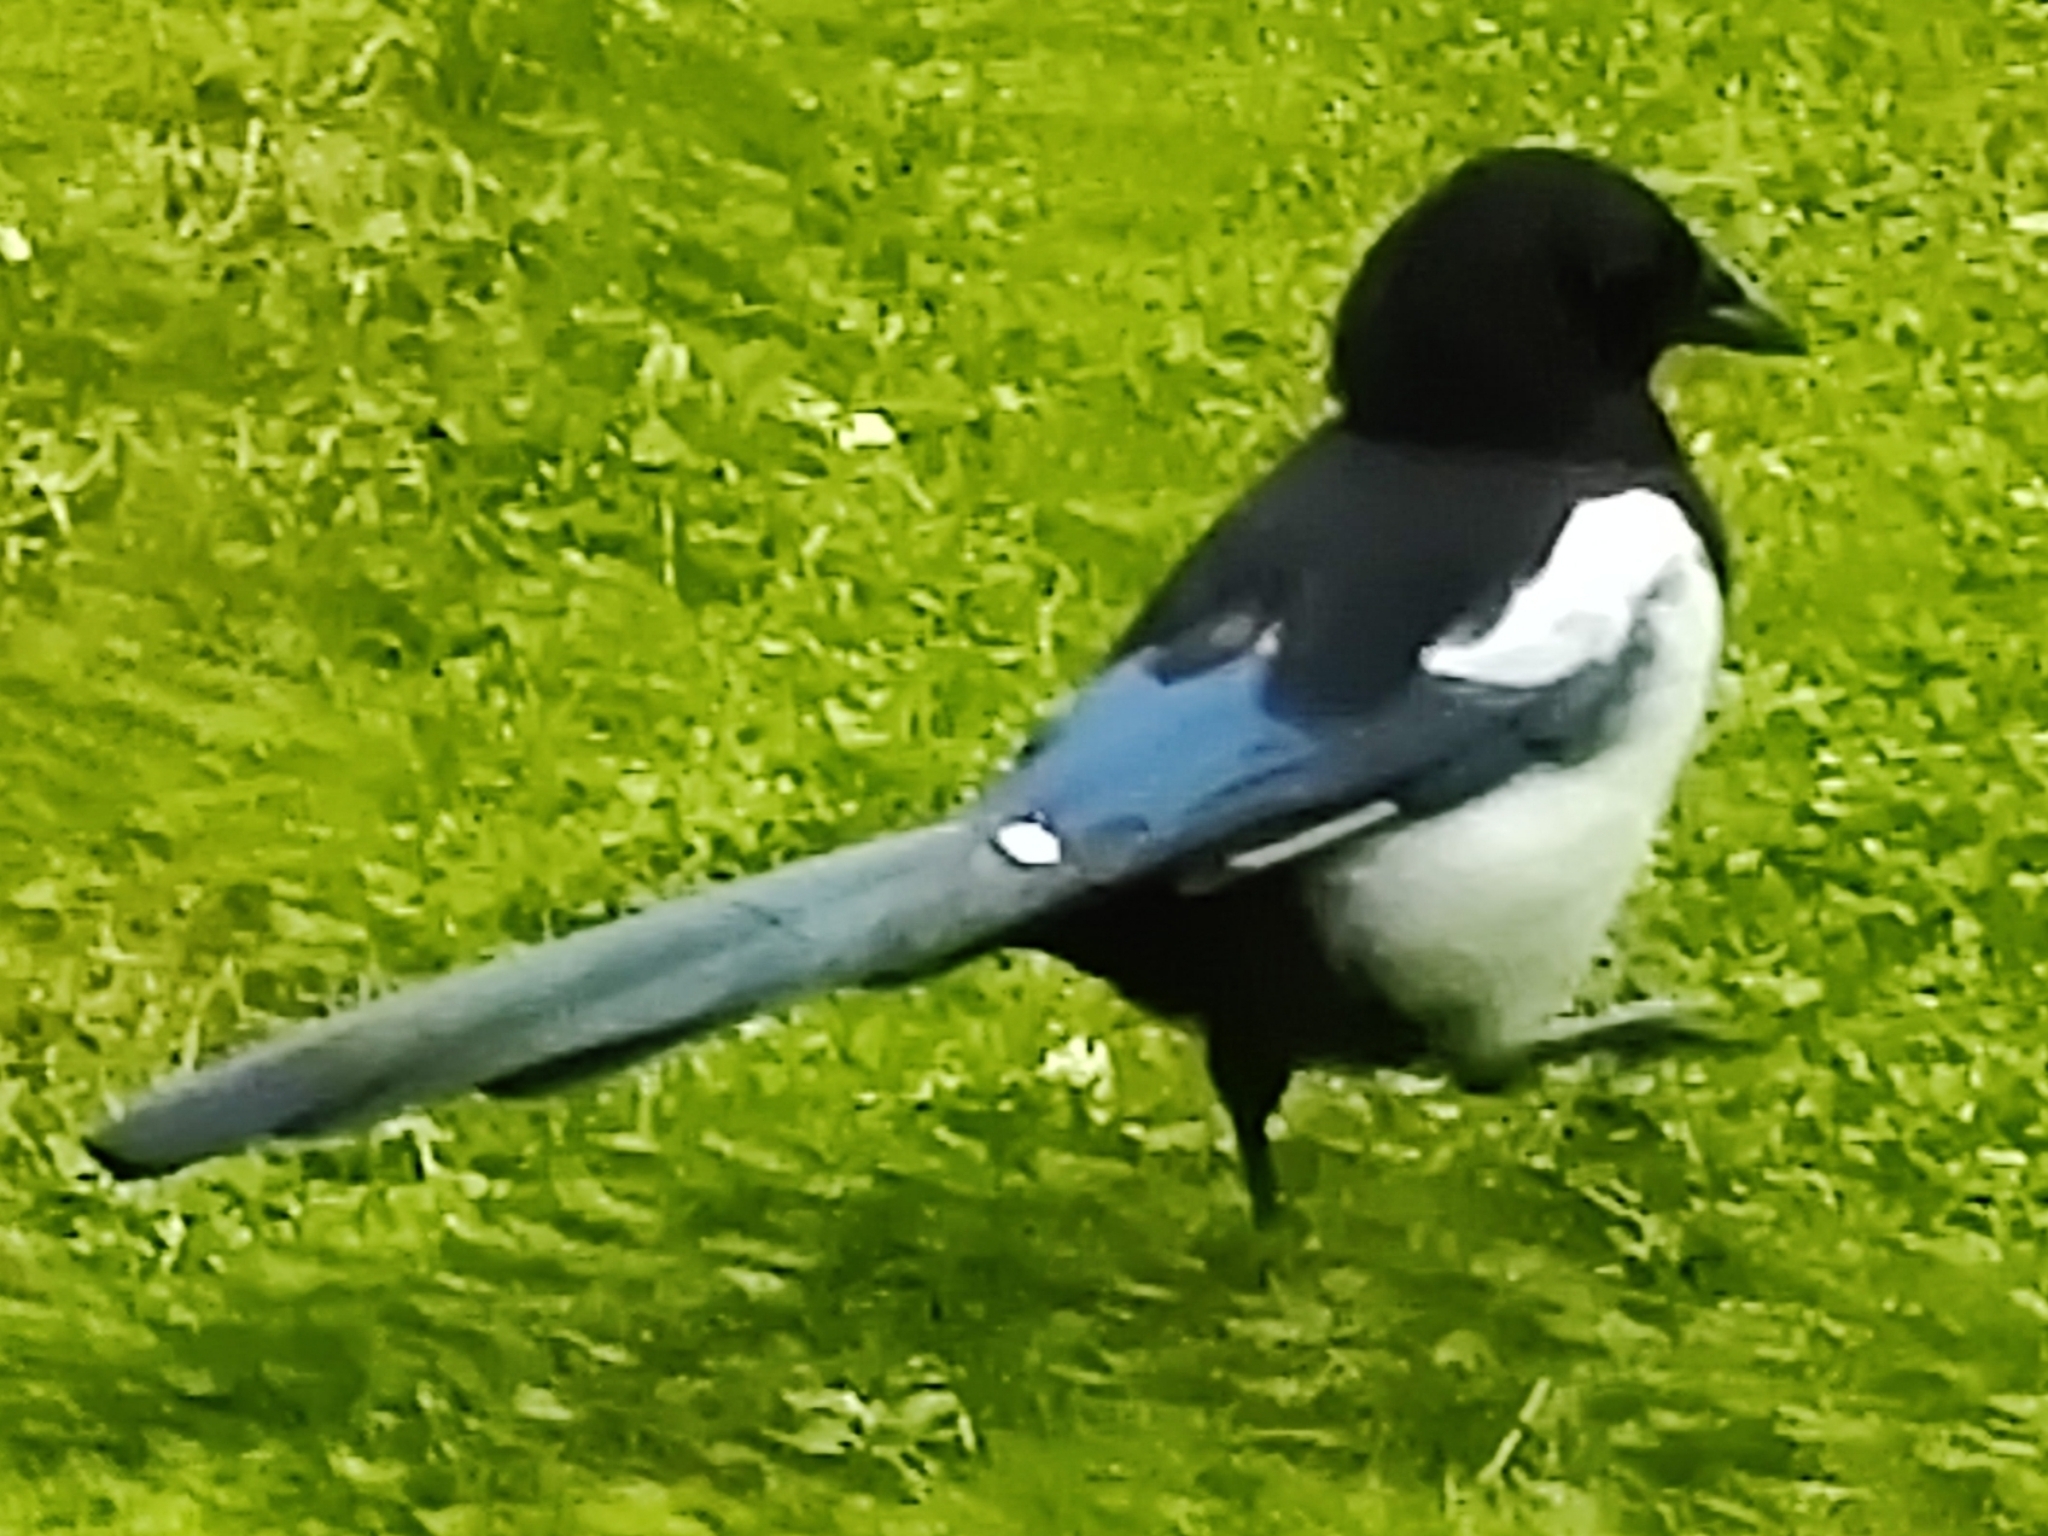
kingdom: Animalia
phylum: Chordata
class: Aves
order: Passeriformes
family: Corvidae
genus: Pica
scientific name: Pica pica
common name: Eurasian magpie
